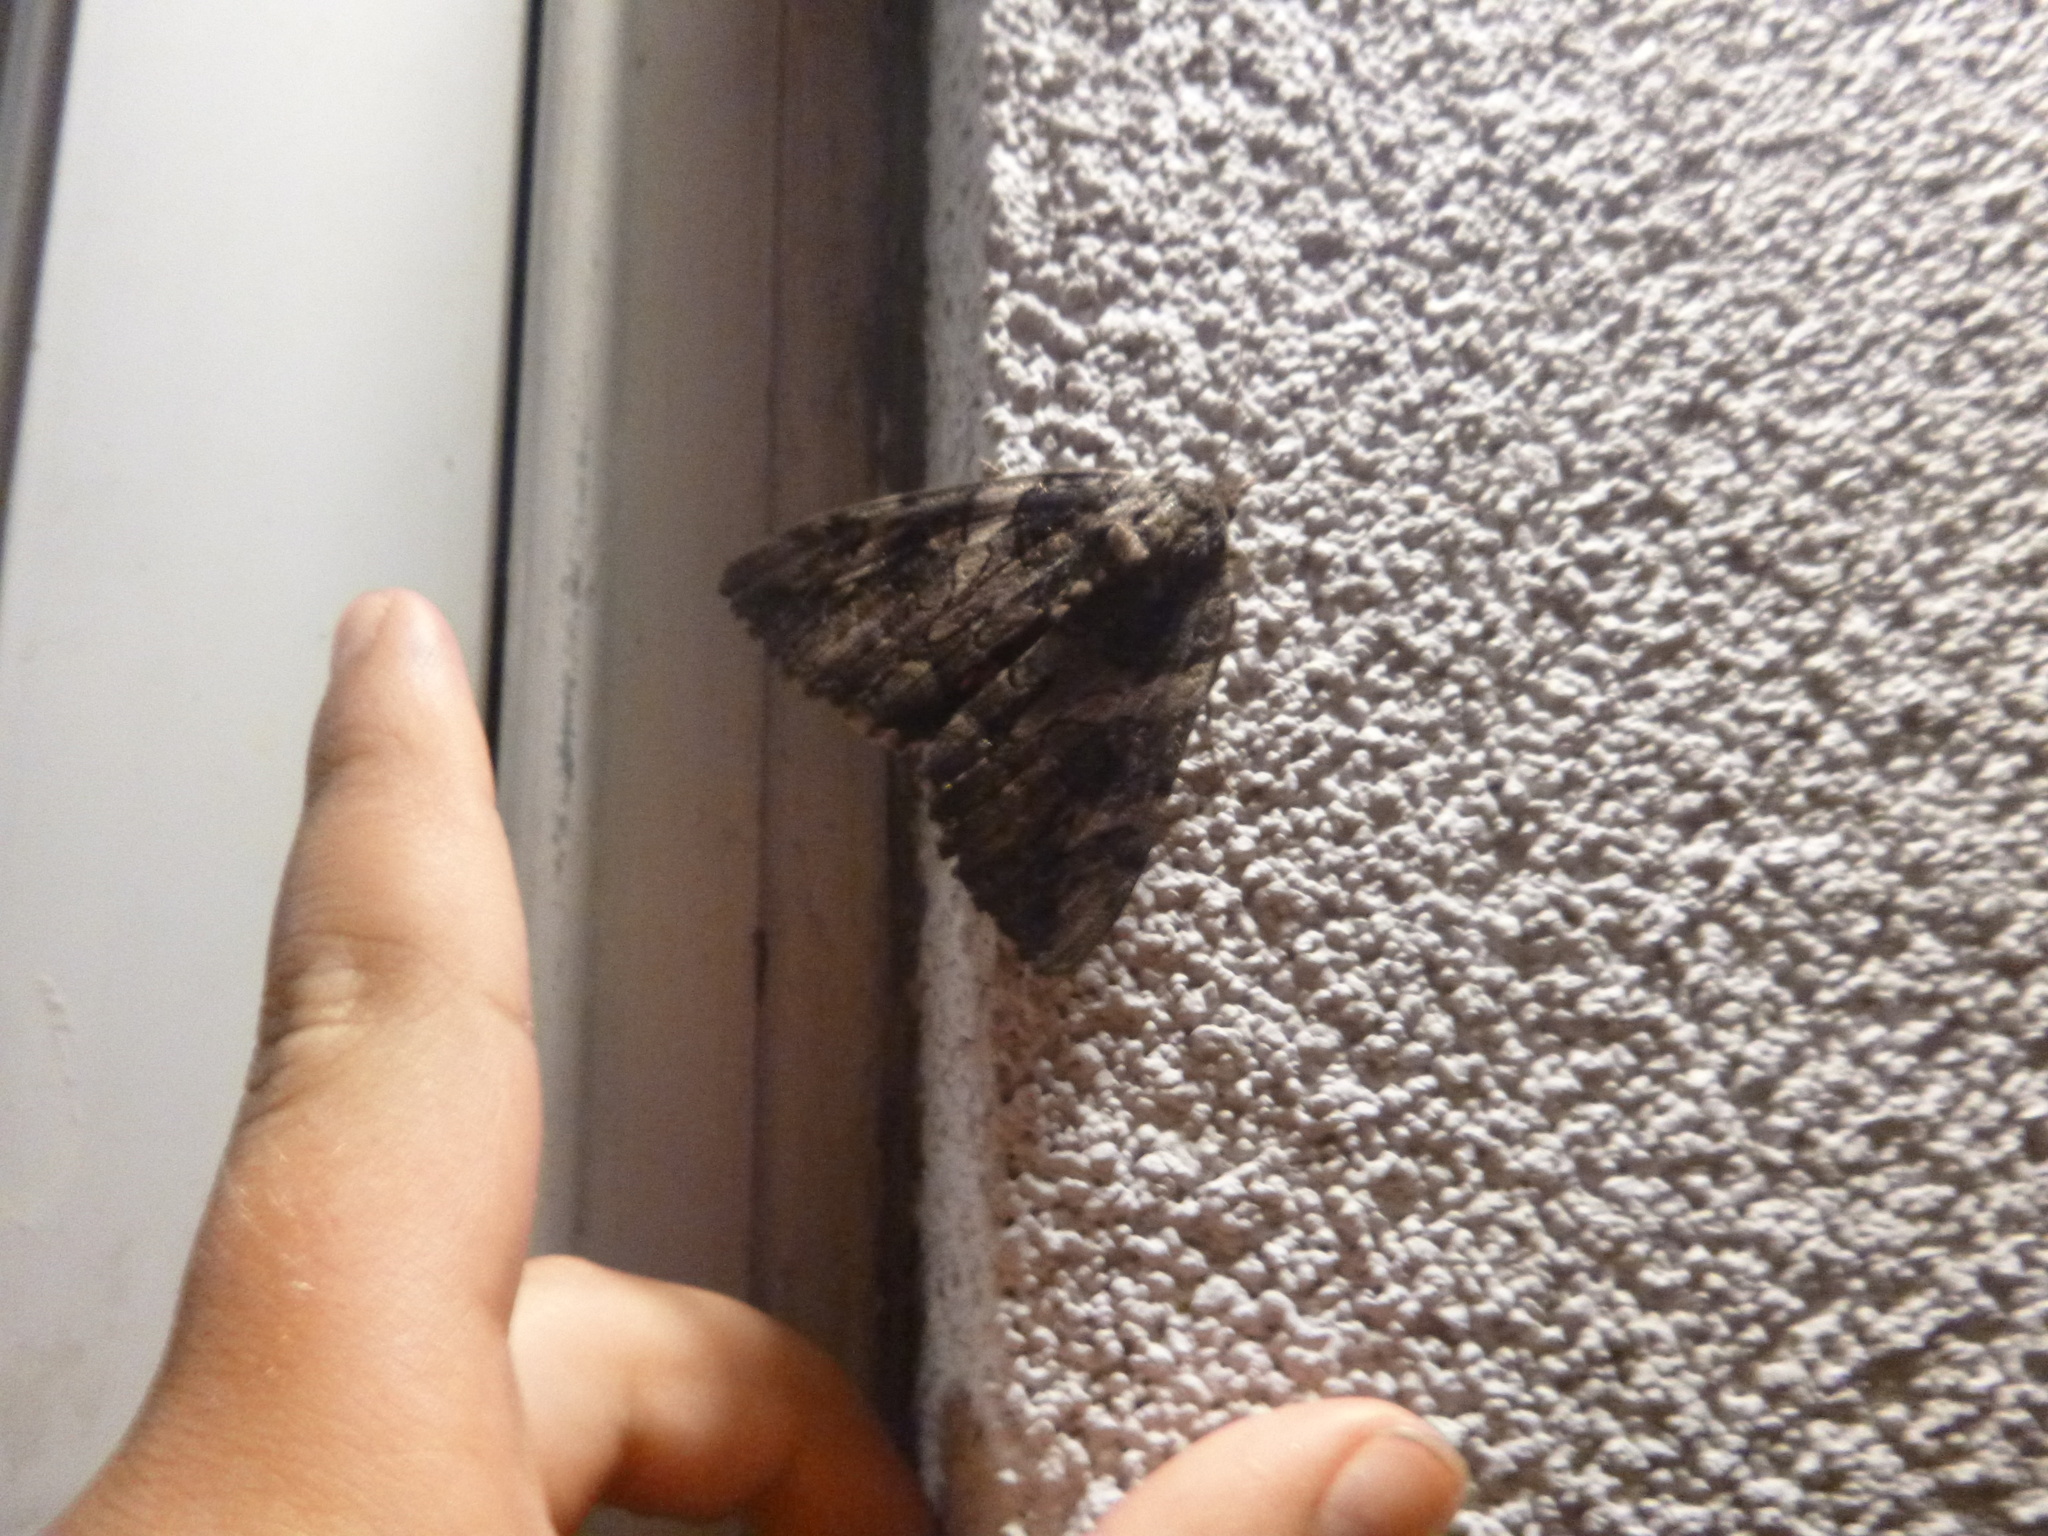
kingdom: Animalia
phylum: Arthropoda
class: Insecta
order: Lepidoptera
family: Erebidae
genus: Catocala
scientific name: Catocala piatrix
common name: The penitent underwing
